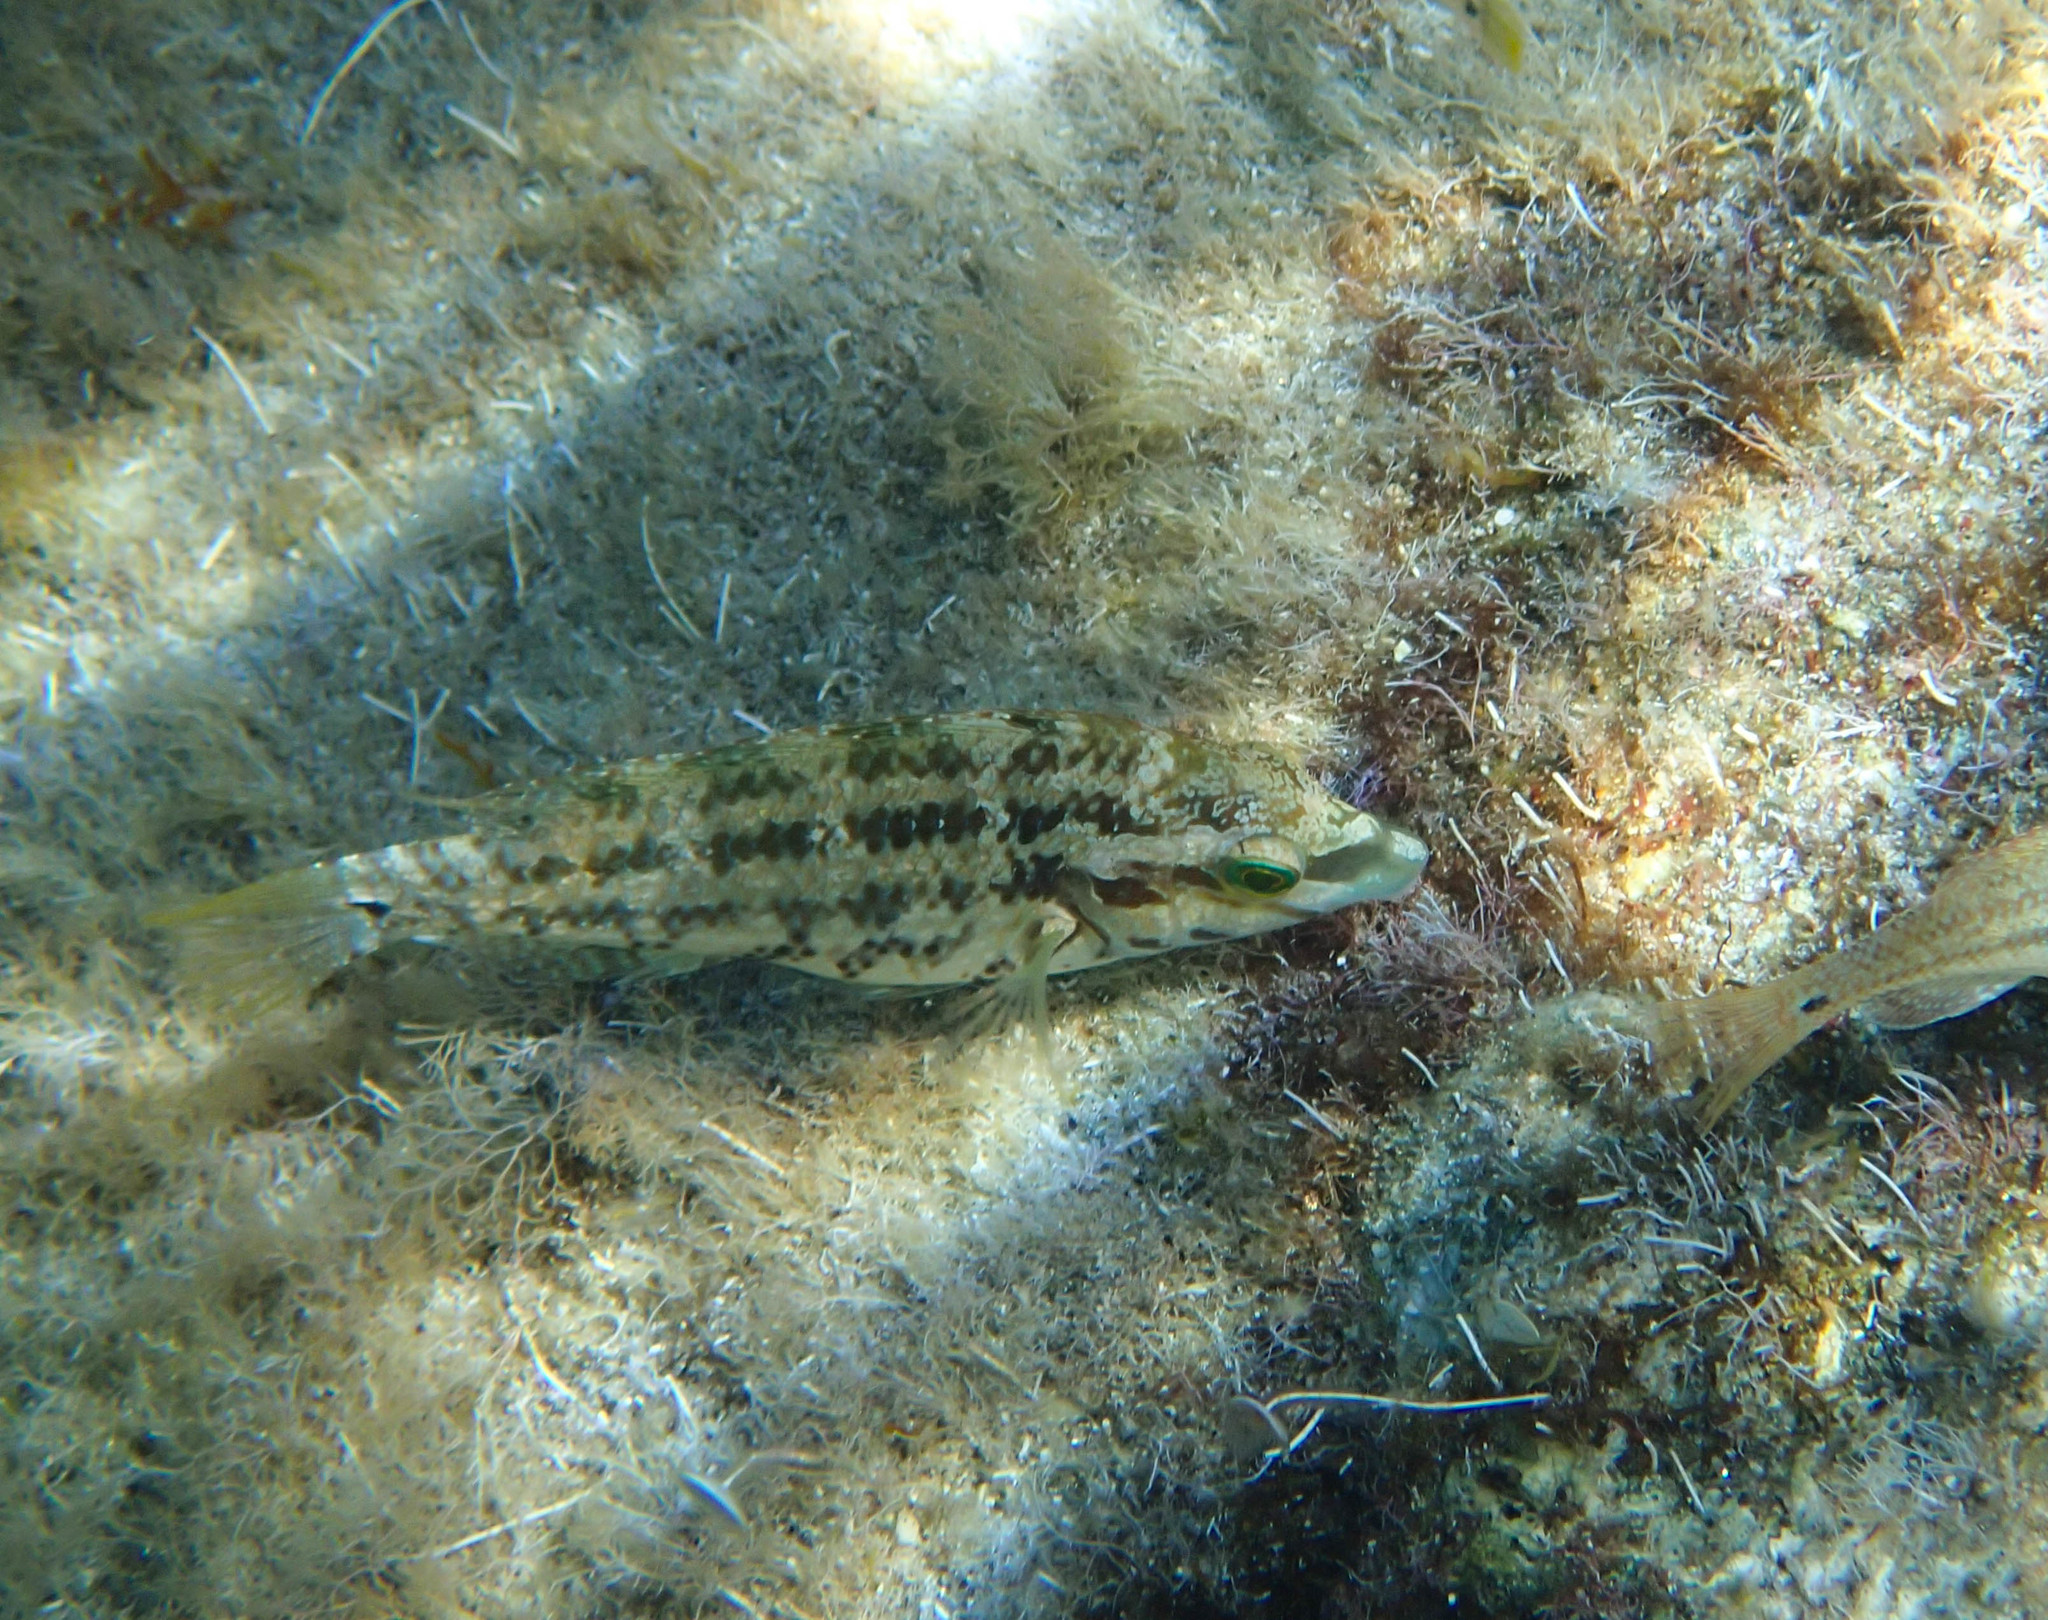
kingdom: Animalia
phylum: Chordata
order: Perciformes
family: Labridae
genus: Symphodus
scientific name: Symphodus roissali
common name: Five-spotted wrasse
